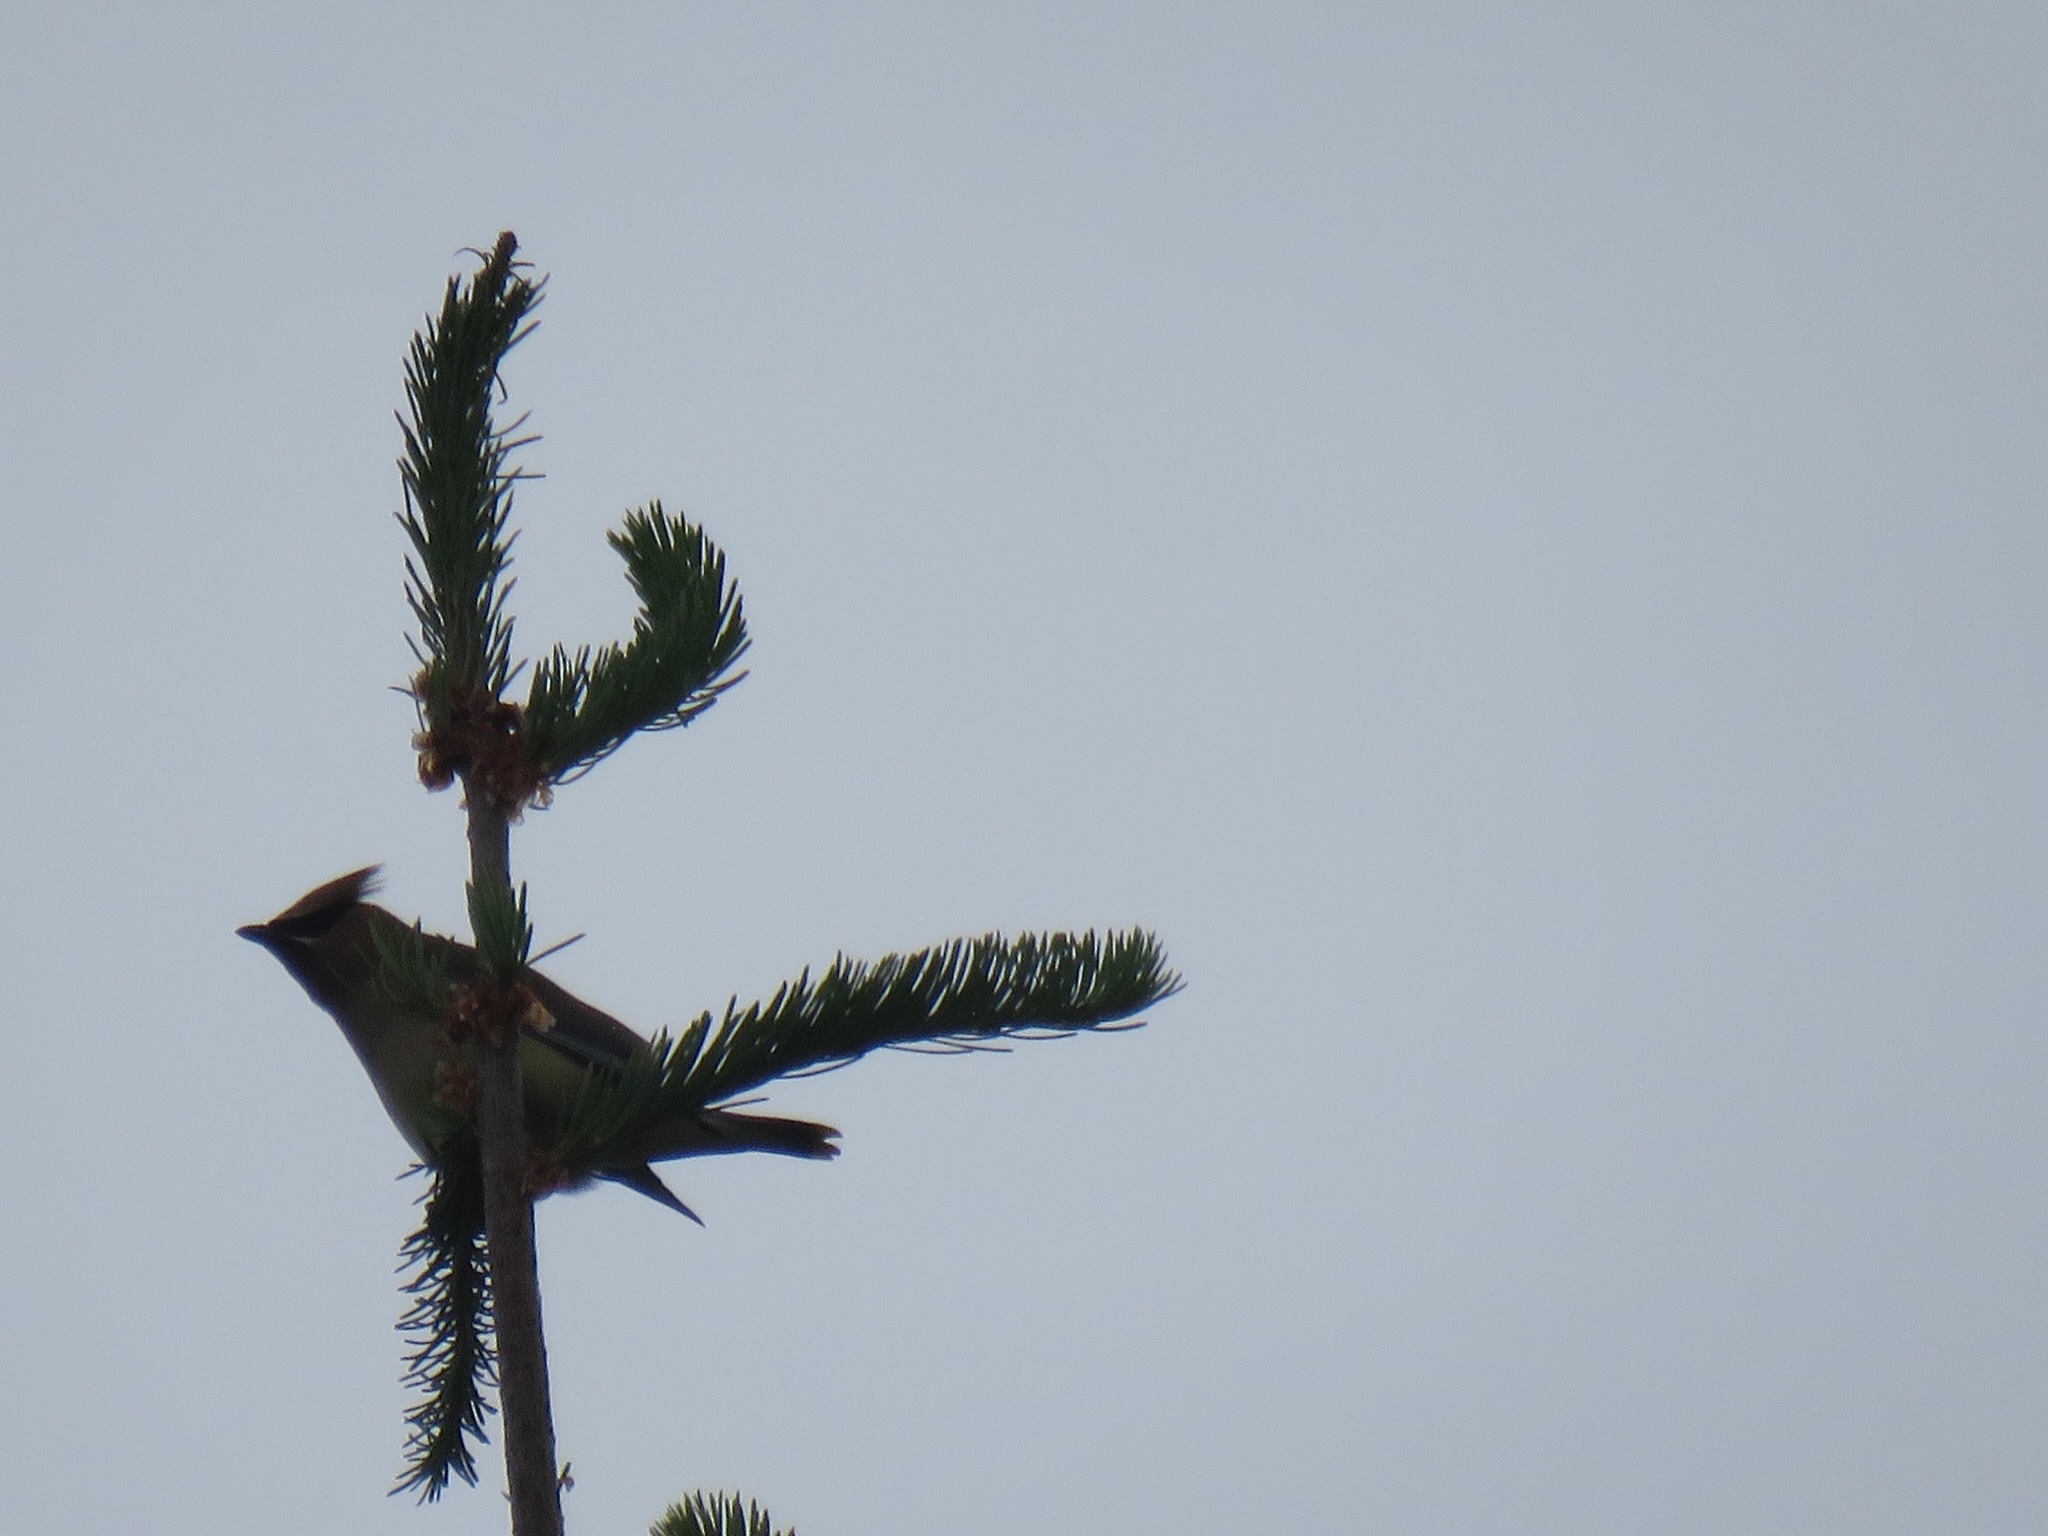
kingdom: Animalia
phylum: Chordata
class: Aves
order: Passeriformes
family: Bombycillidae
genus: Bombycilla
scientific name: Bombycilla cedrorum
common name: Cedar waxwing
